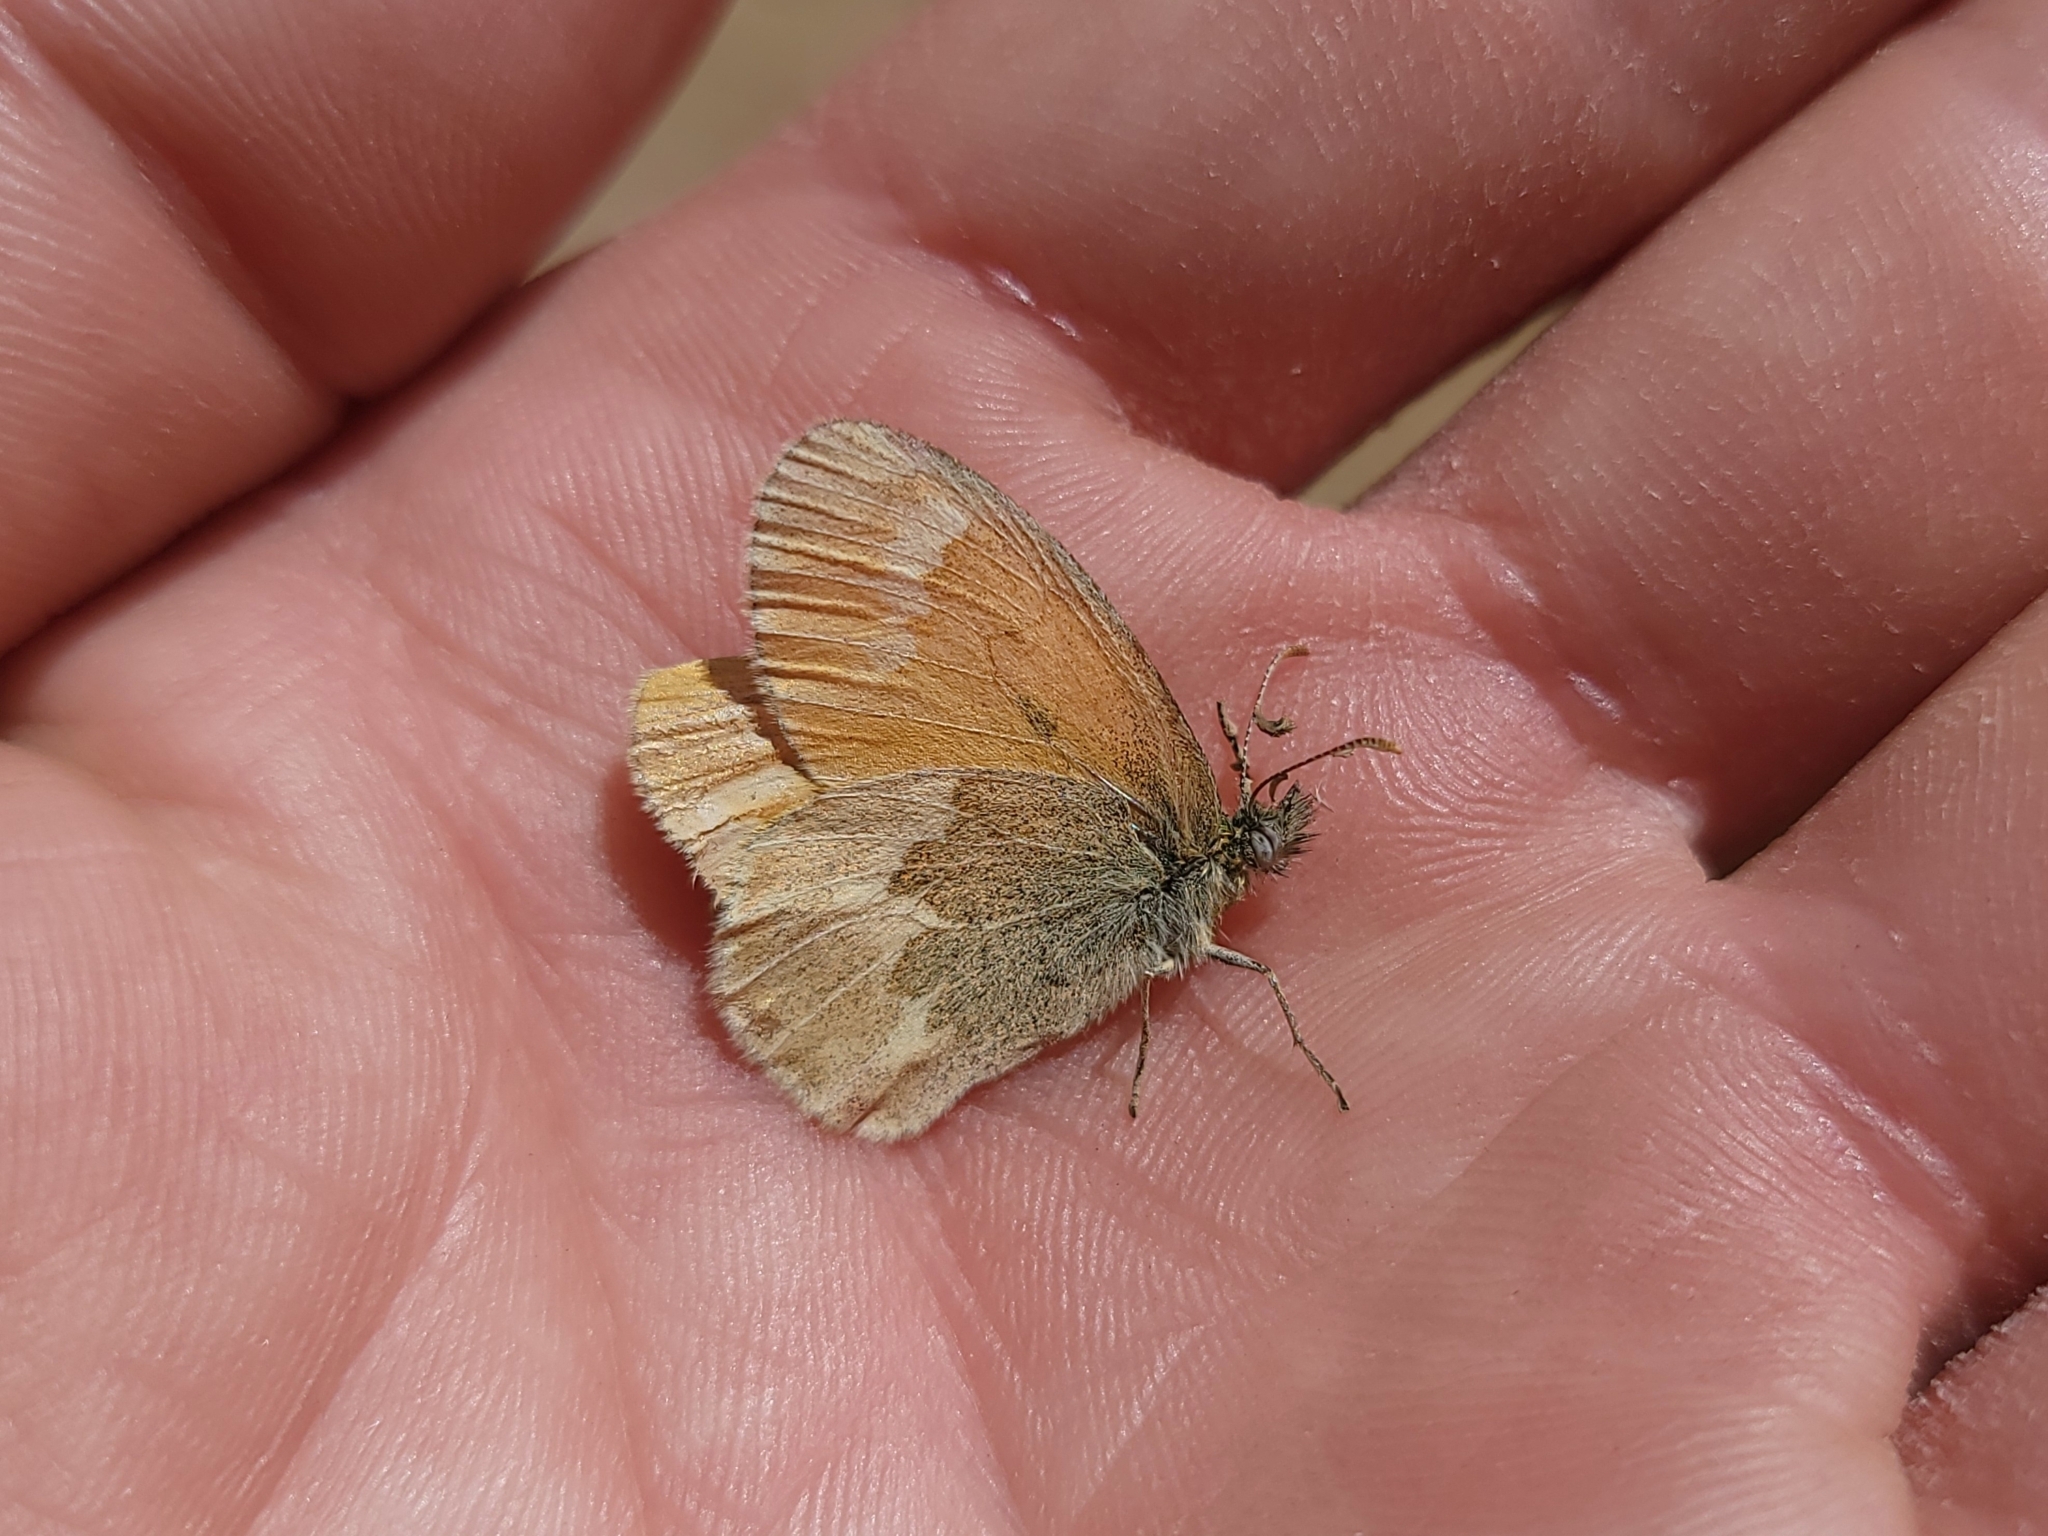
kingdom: Animalia
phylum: Arthropoda
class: Insecta
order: Lepidoptera
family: Nymphalidae
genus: Coenonympha
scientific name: Coenonympha california
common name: Common ringlet
